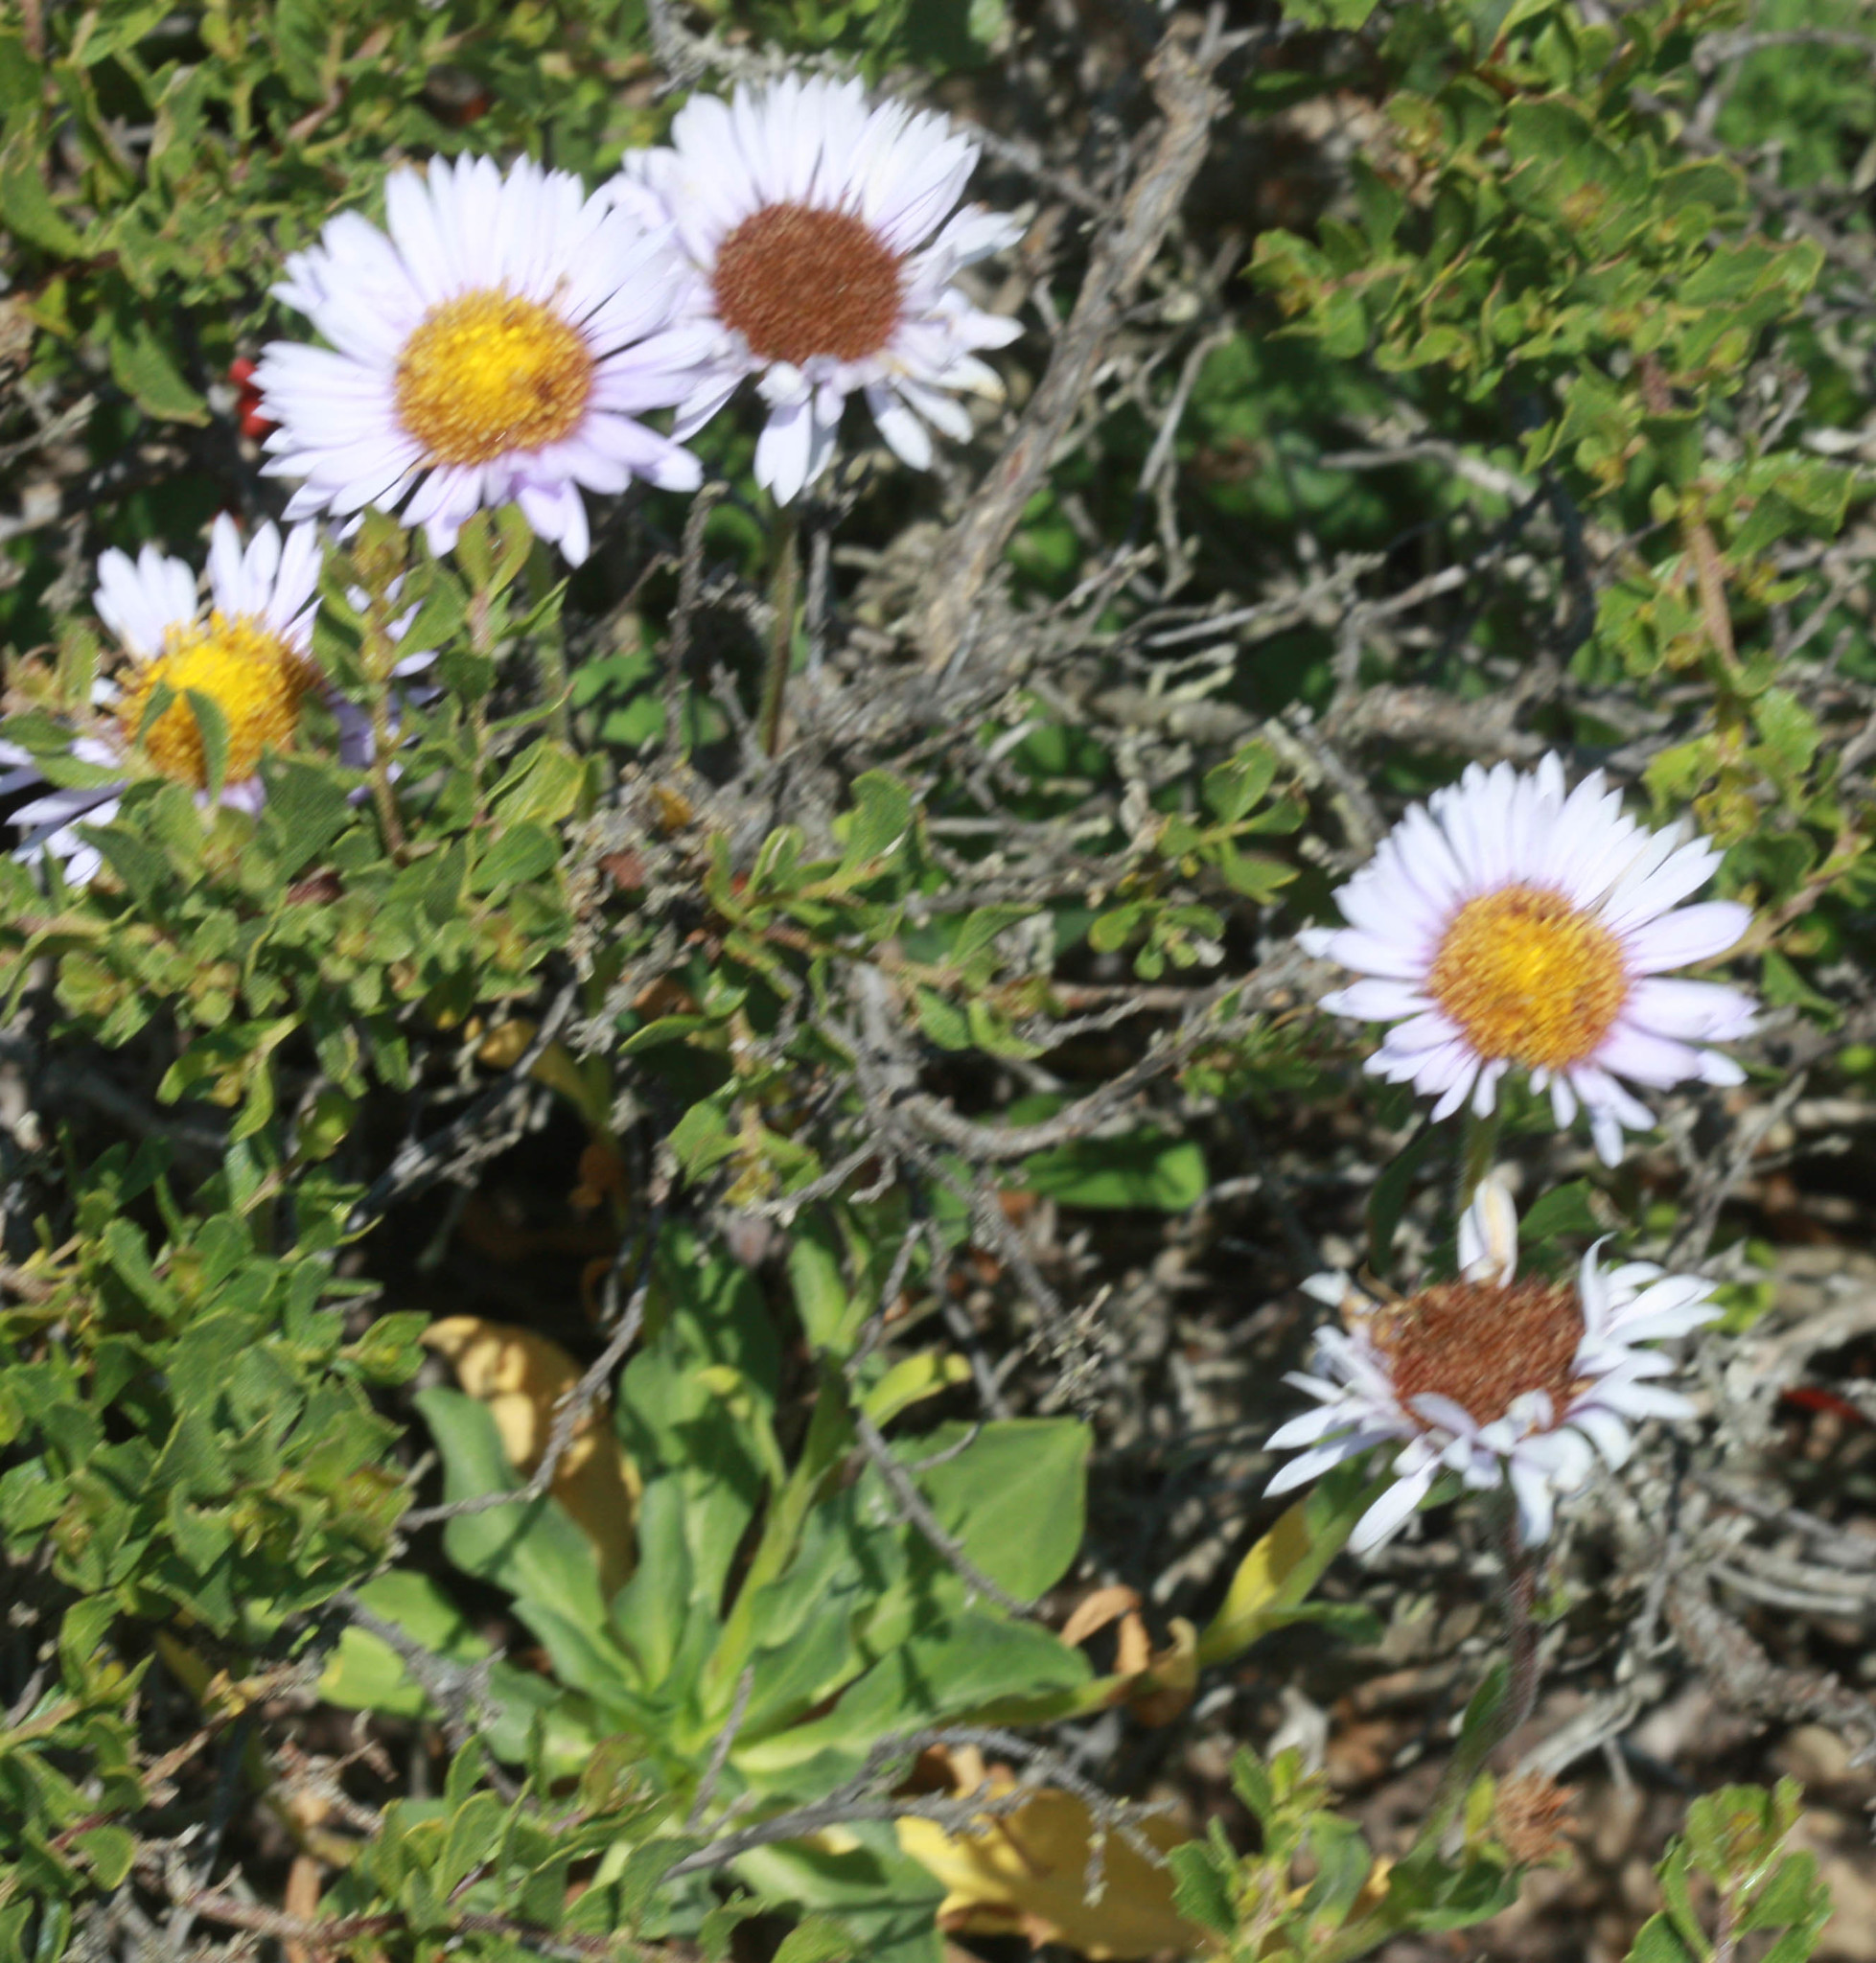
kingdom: Plantae
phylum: Tracheophyta
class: Magnoliopsida
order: Asterales
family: Asteraceae
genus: Erigeron
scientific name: Erigeron glaucus
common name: Seaside daisy
